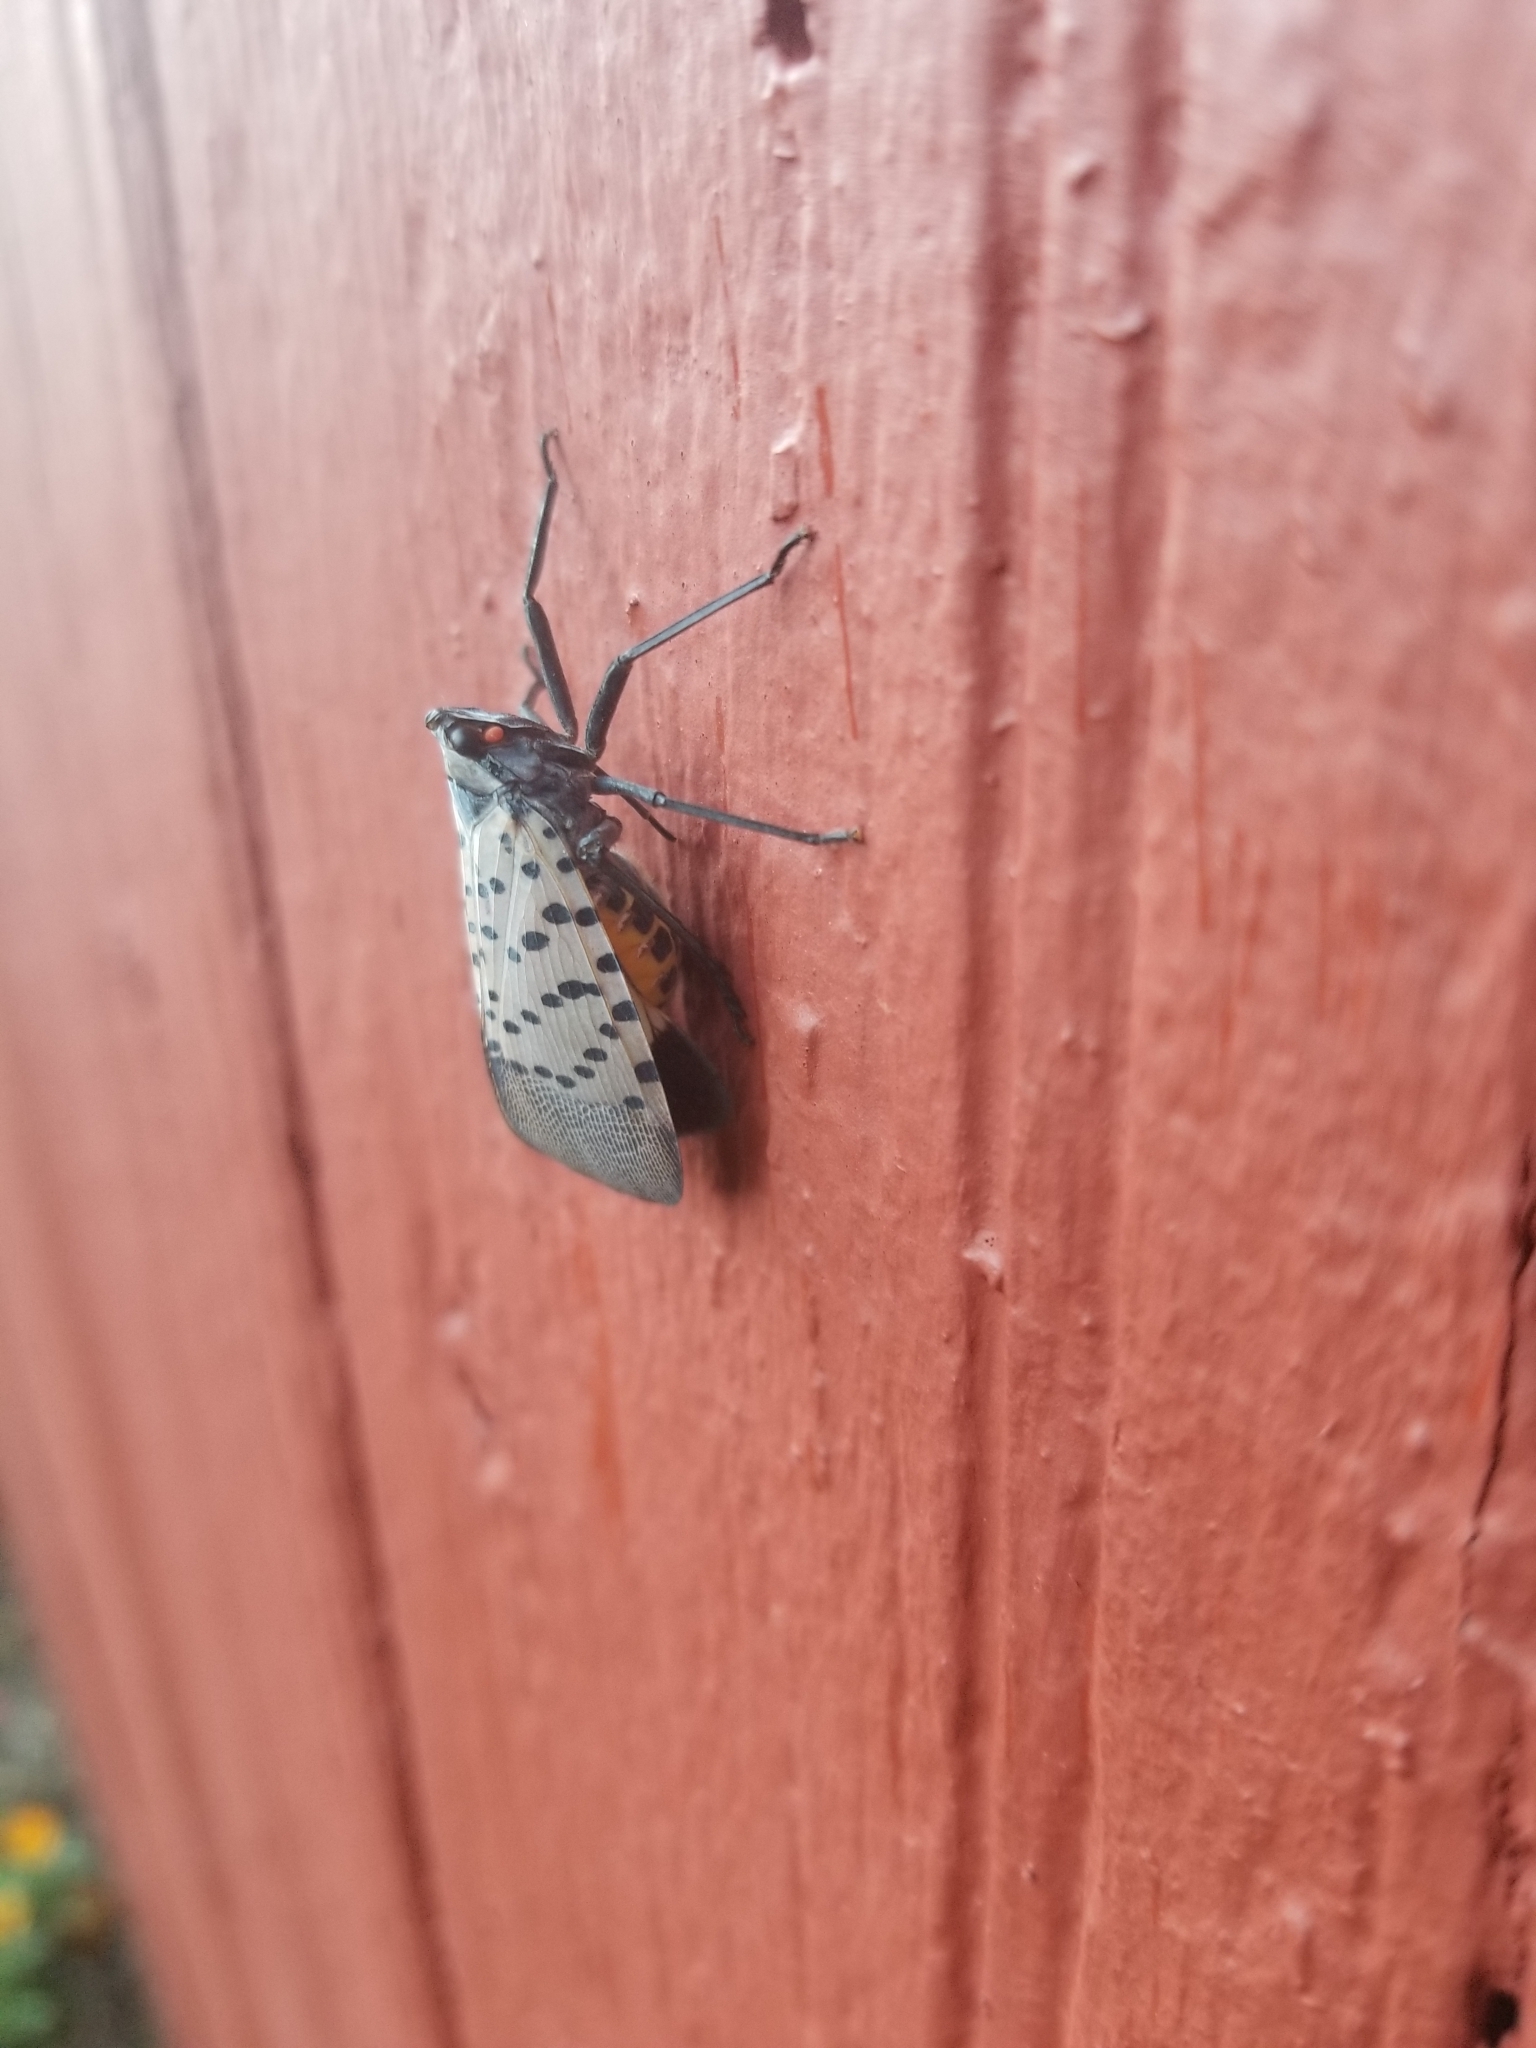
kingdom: Animalia
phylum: Arthropoda
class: Insecta
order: Hemiptera
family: Fulgoridae
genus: Lycorma
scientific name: Lycorma delicatula
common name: Spotted lanternfly
